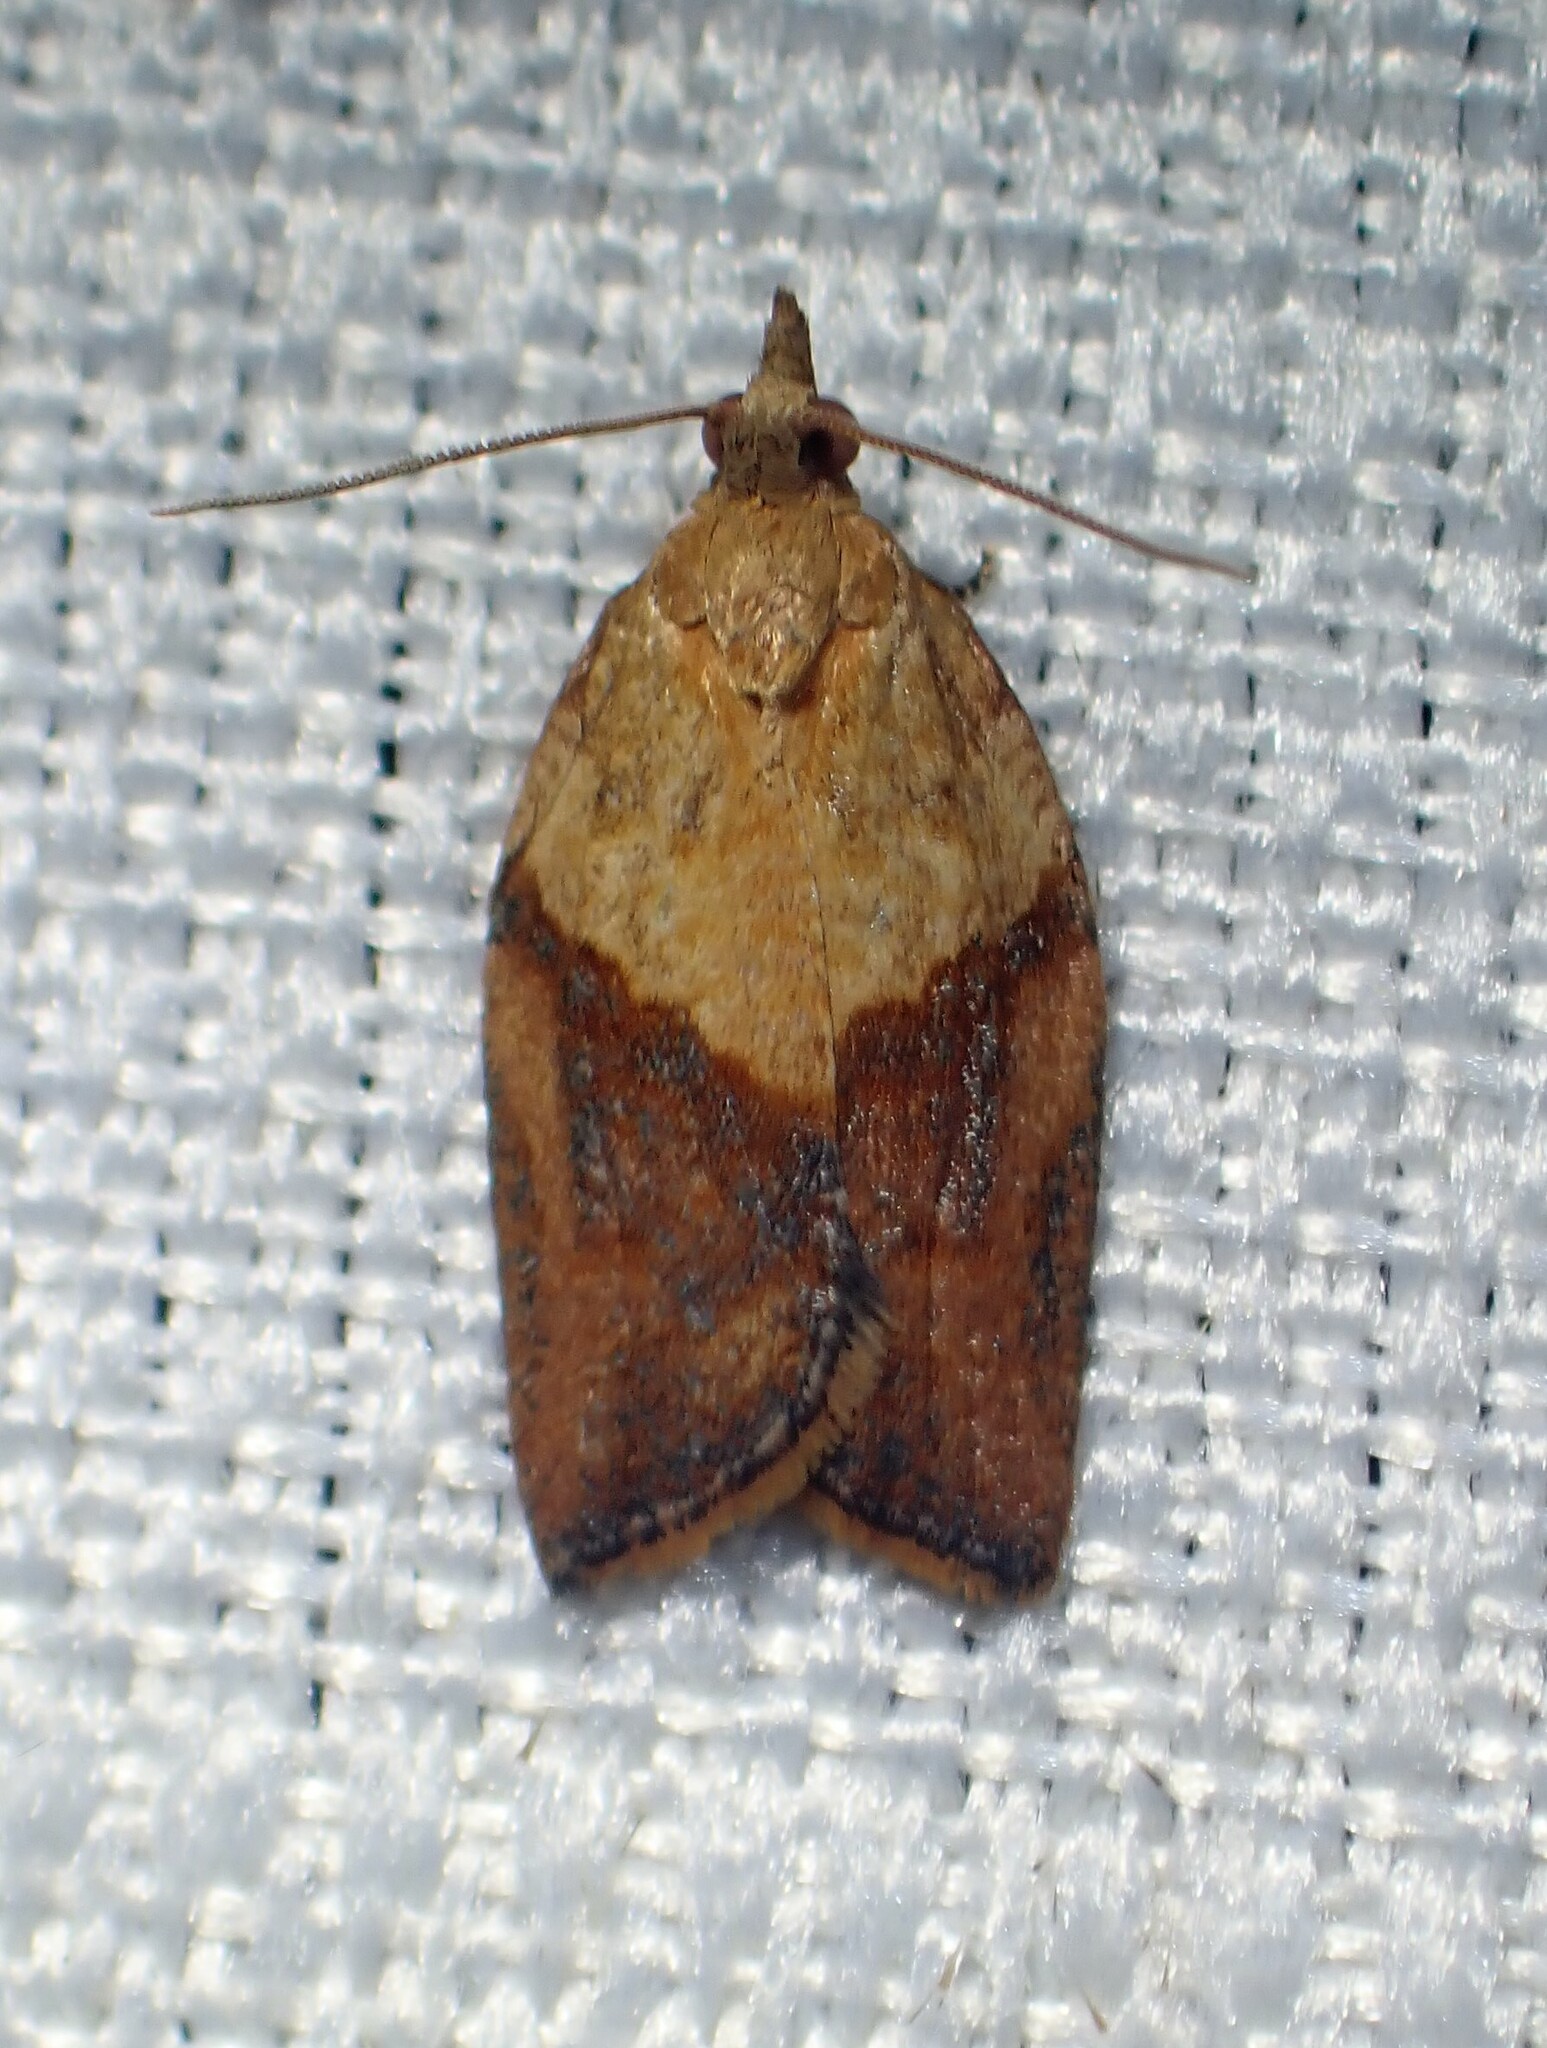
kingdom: Animalia
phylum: Arthropoda
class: Insecta
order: Lepidoptera
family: Tortricidae
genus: Epiphyas
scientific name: Epiphyas postvittana
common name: Light brown apple moth
